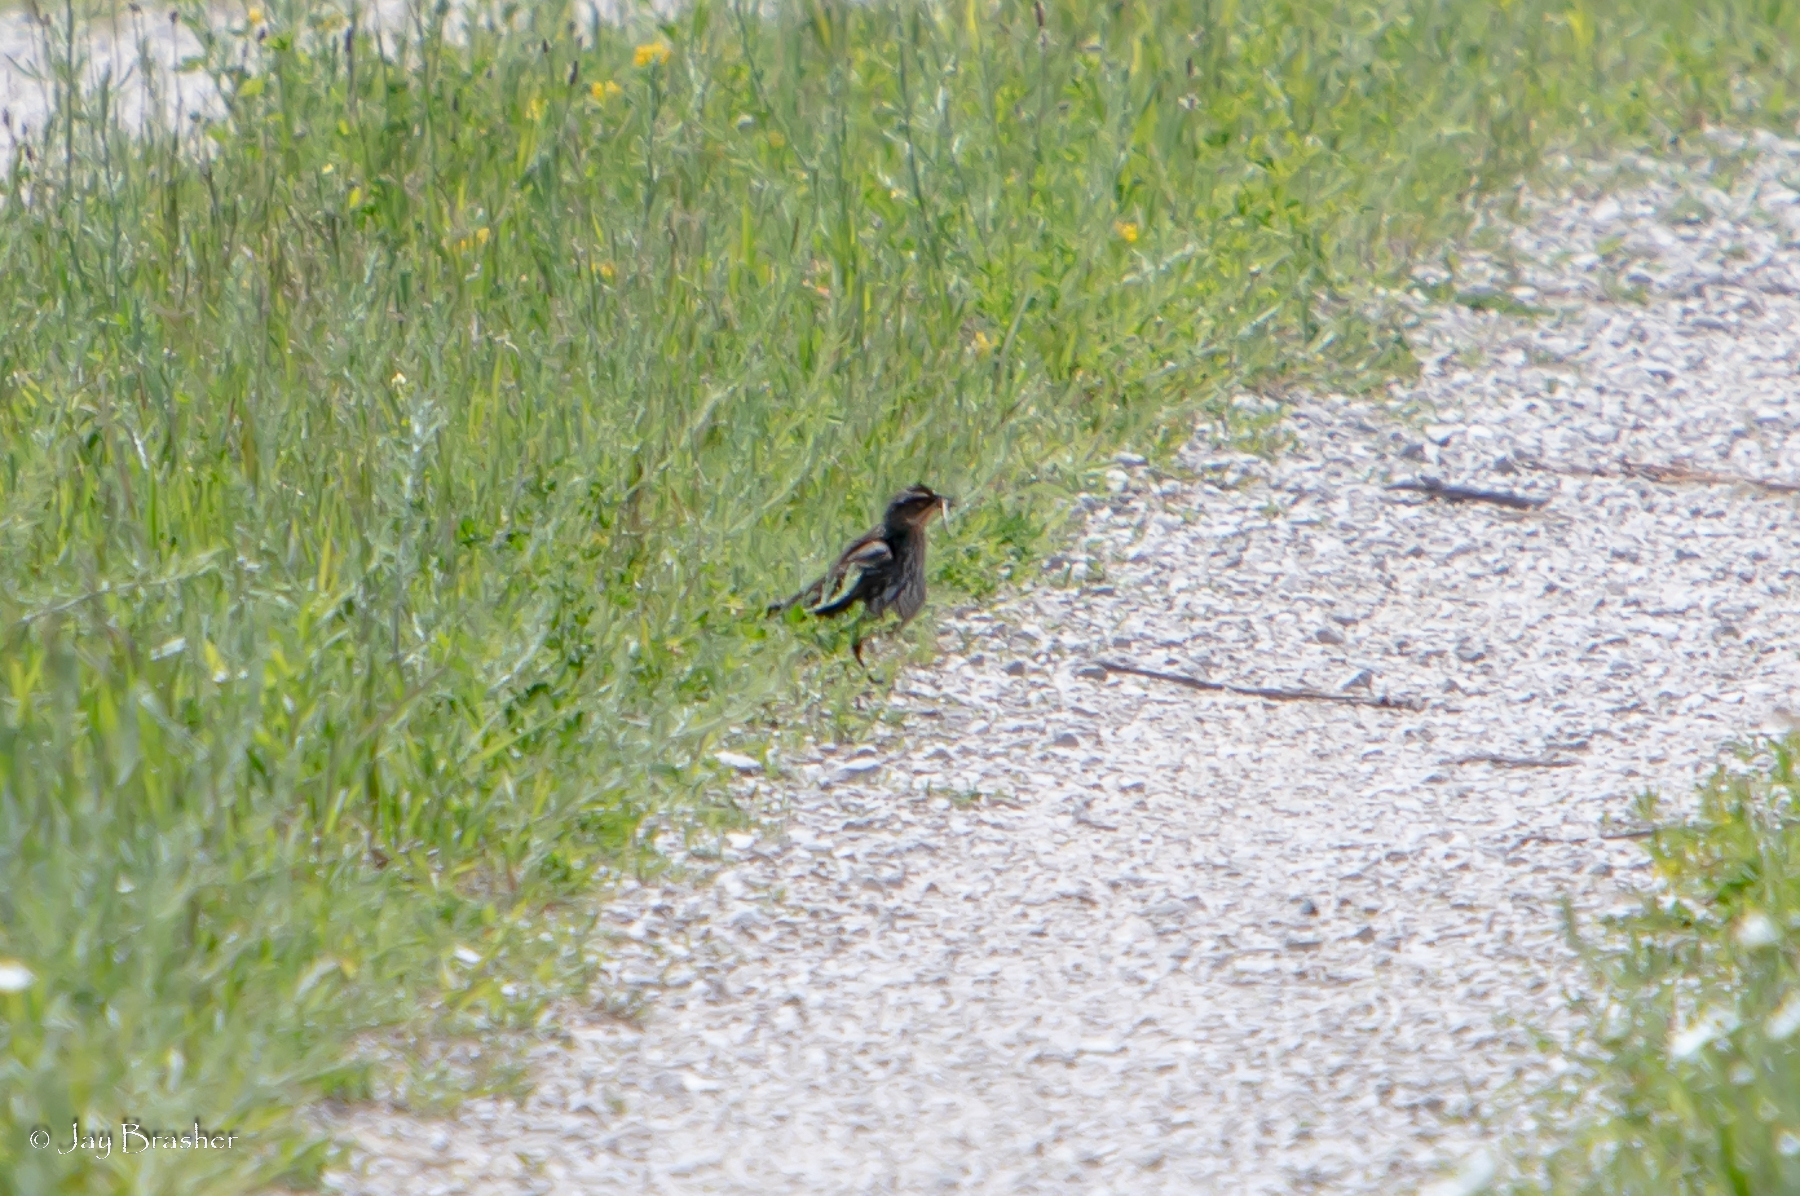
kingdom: Animalia
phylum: Chordata
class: Aves
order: Passeriformes
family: Icteridae
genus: Dolichonyx
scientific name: Dolichonyx oryzivorus
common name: Bobolink
